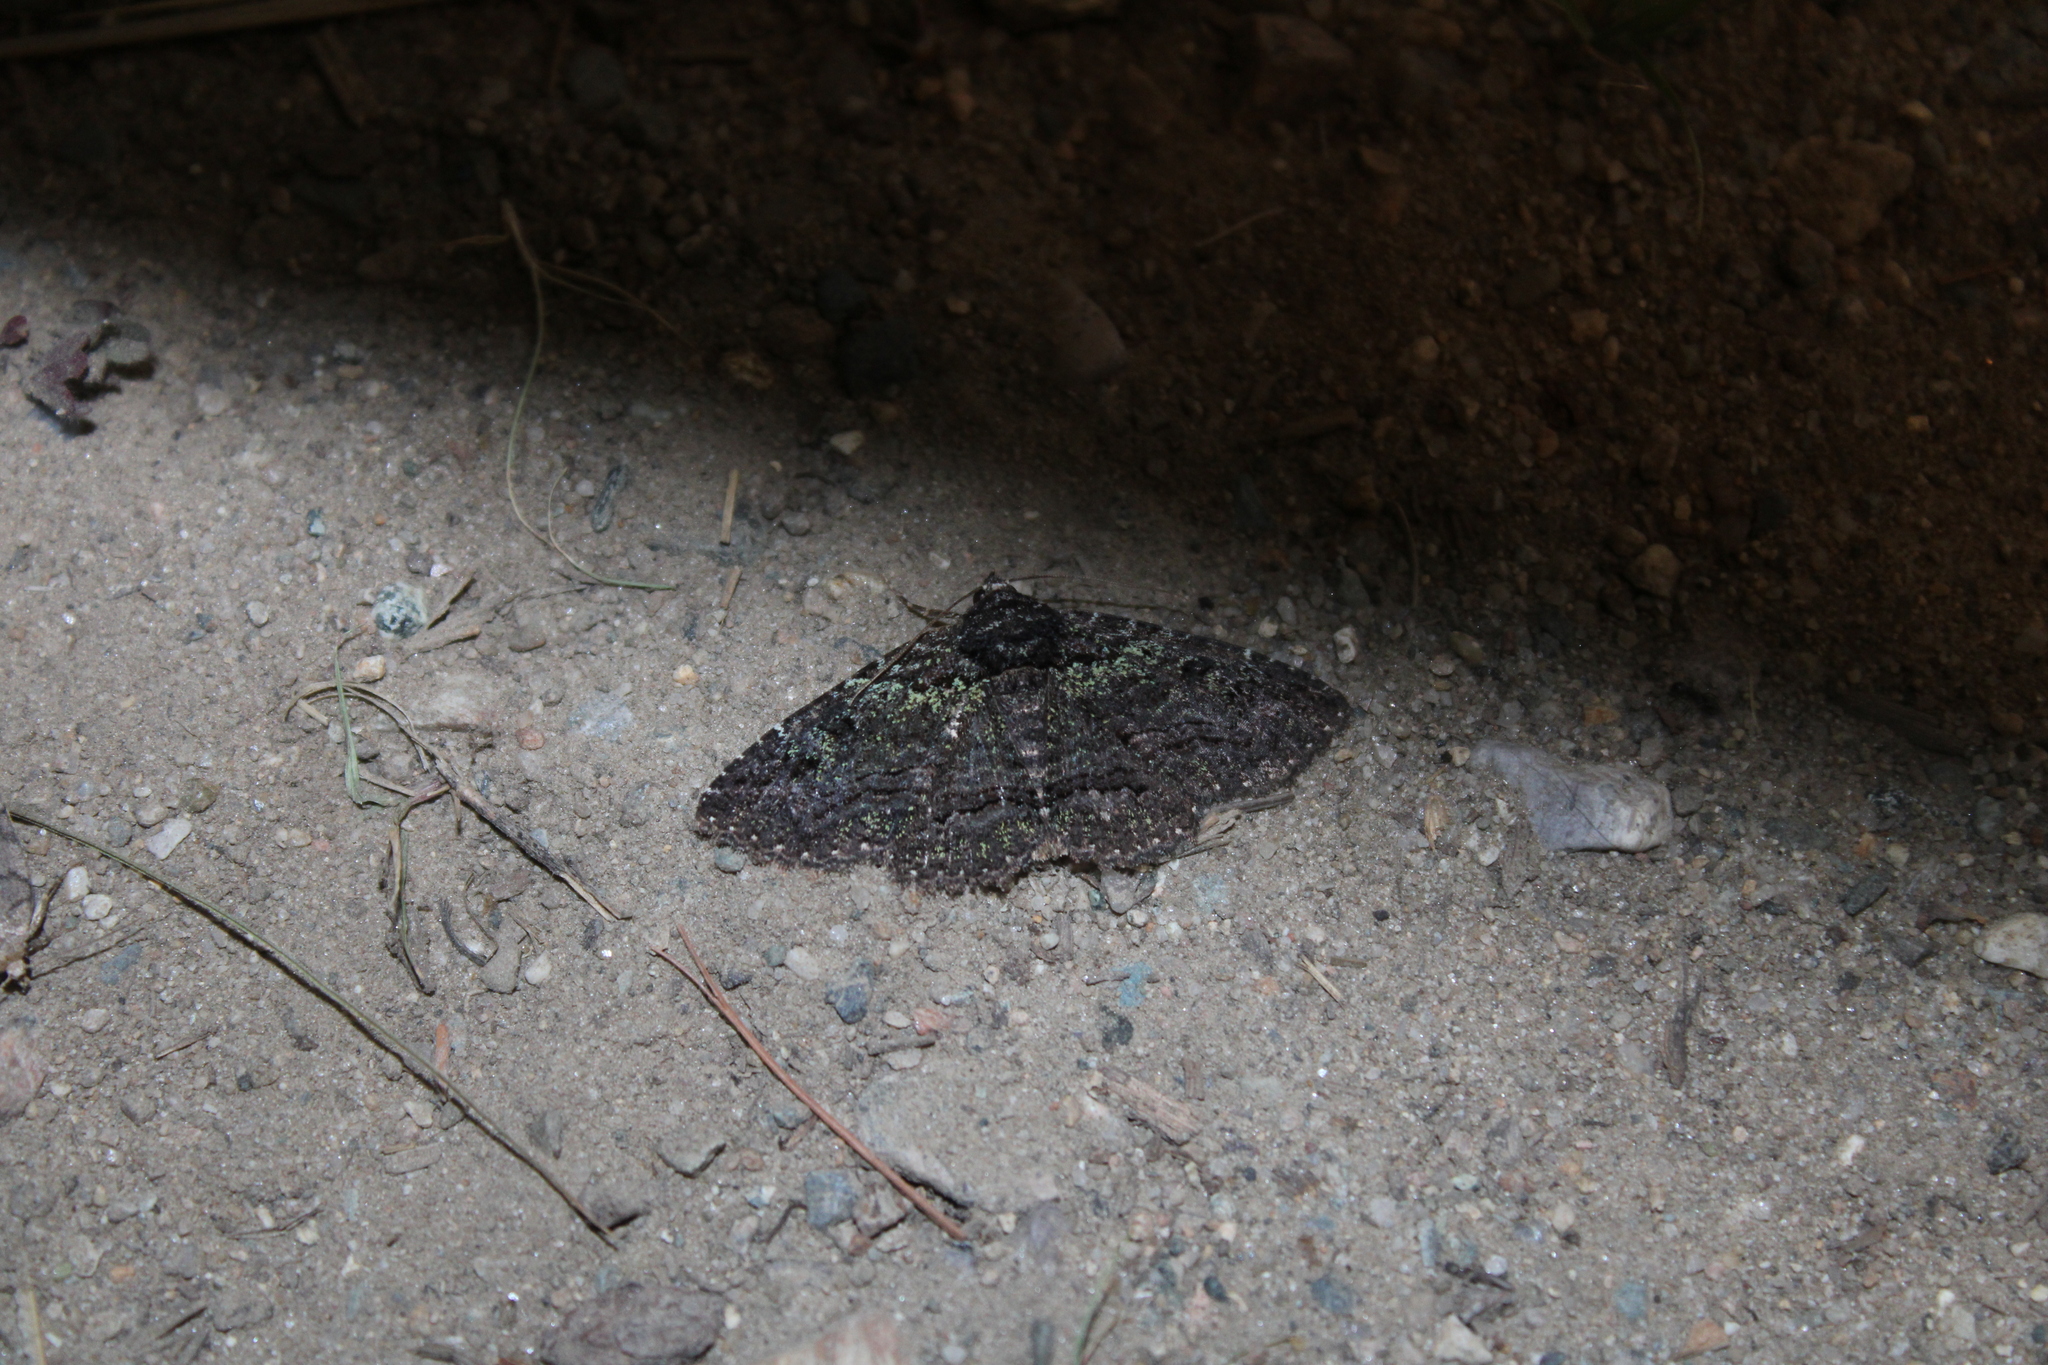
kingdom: Animalia
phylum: Arthropoda
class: Insecta
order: Lepidoptera
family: Erebidae
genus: Zale
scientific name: Zale aeruginosa
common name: Green-dusted zale moth
